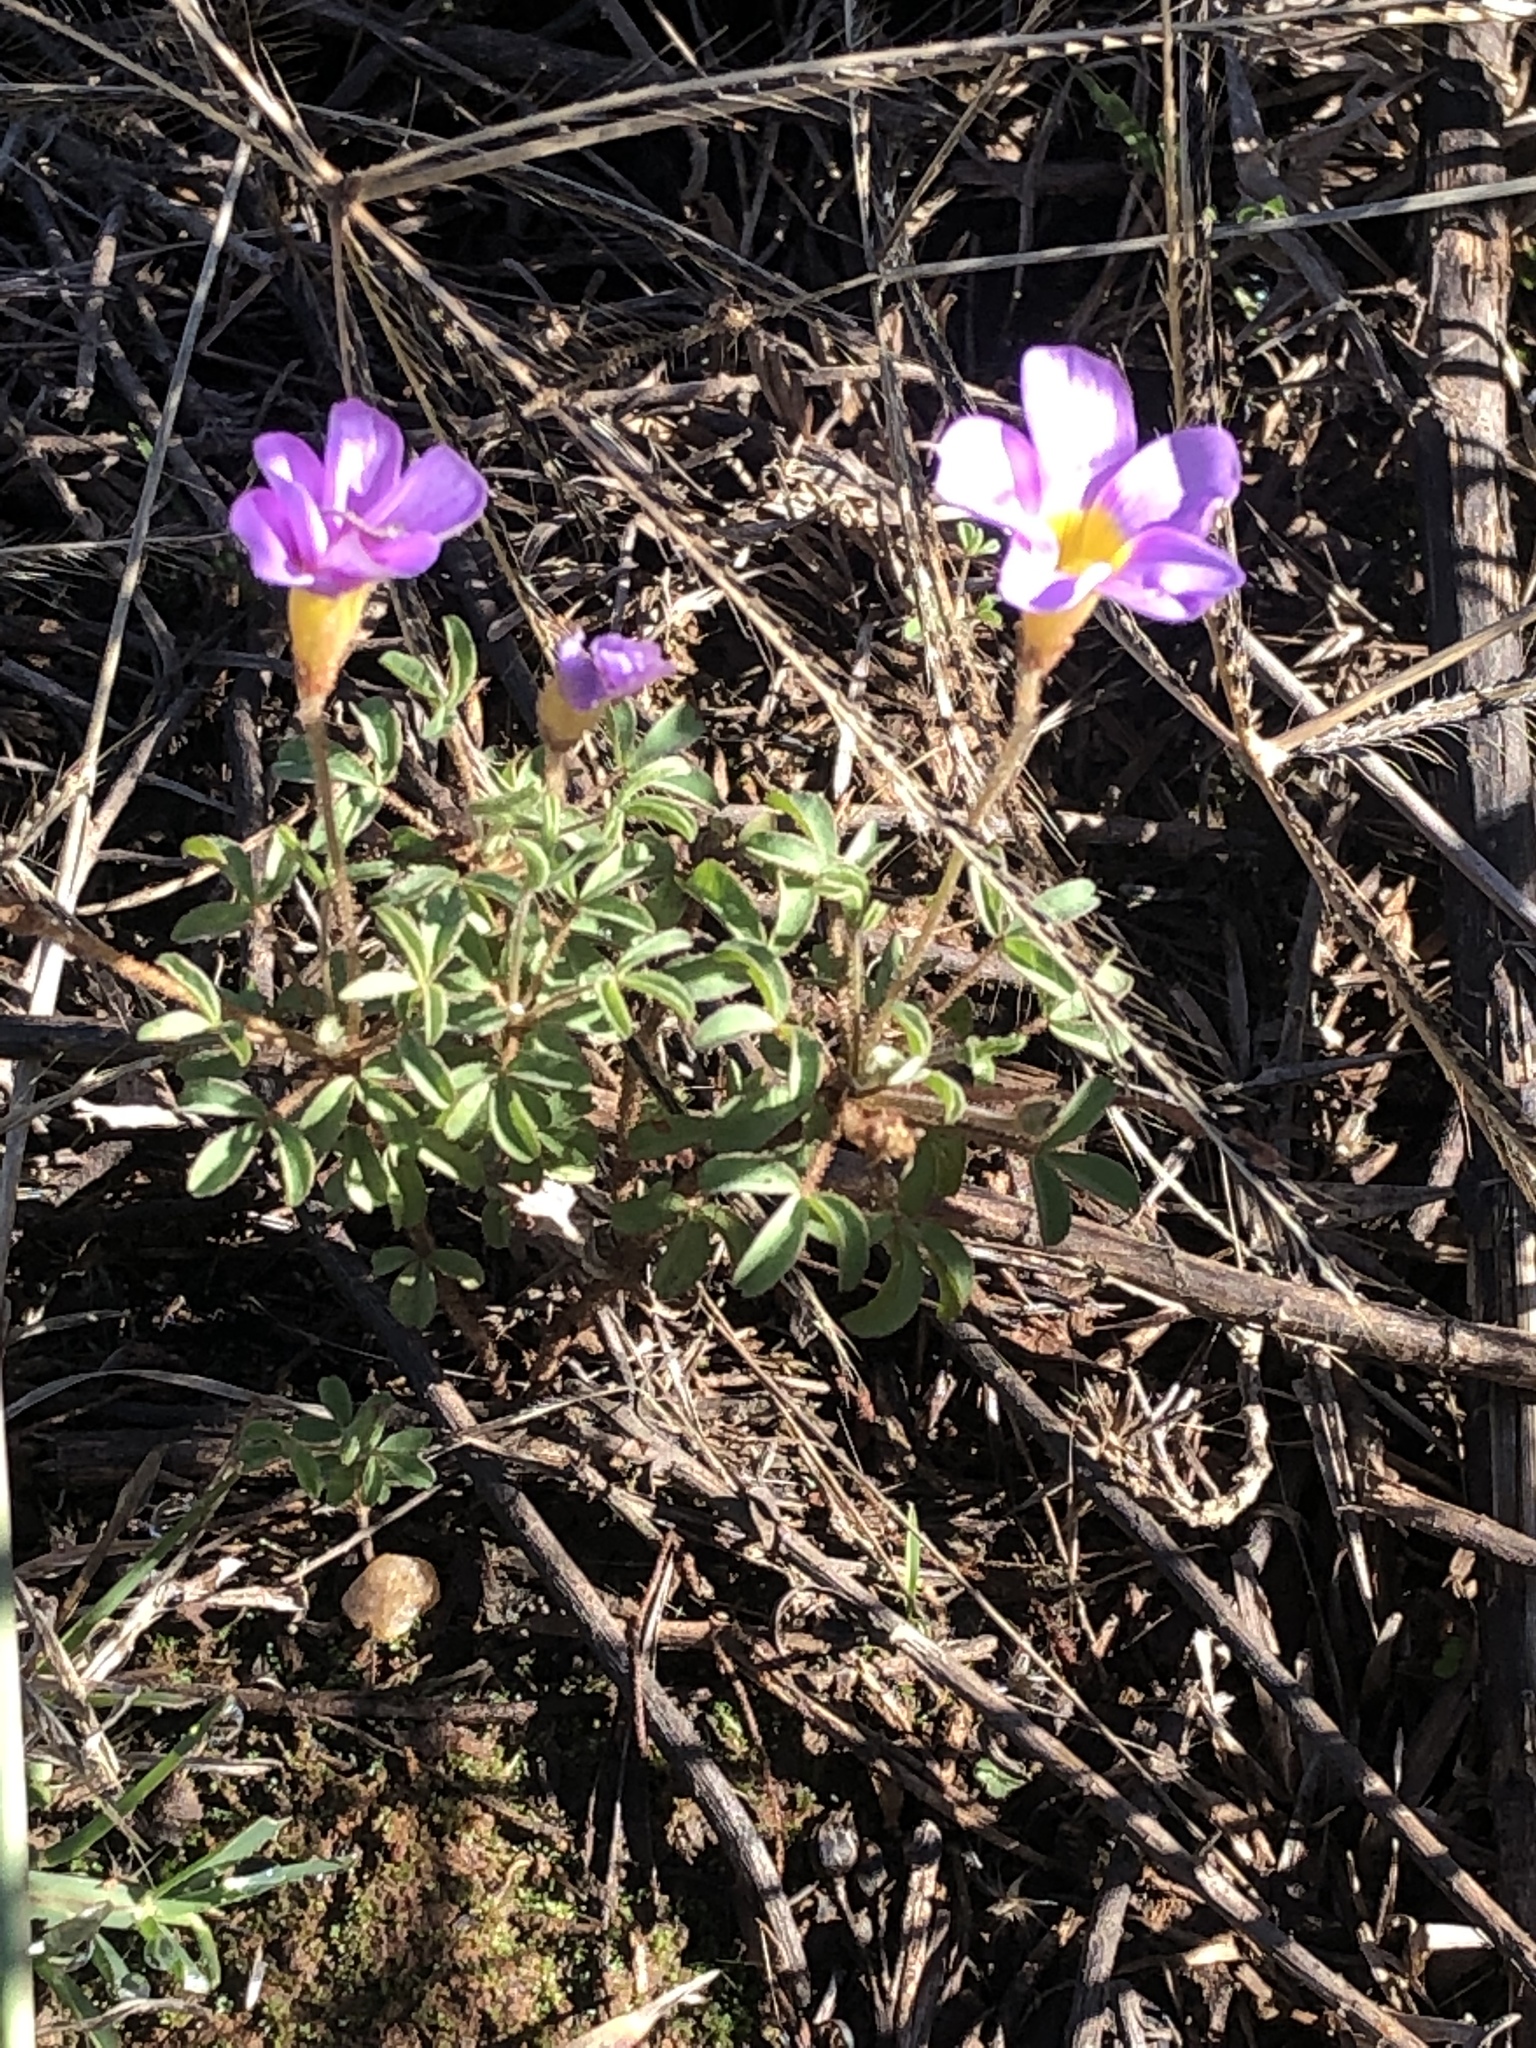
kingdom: Plantae
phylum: Tracheophyta
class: Magnoliopsida
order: Oxalidales
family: Oxalidaceae
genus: Oxalis
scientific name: Oxalis ciliaris
